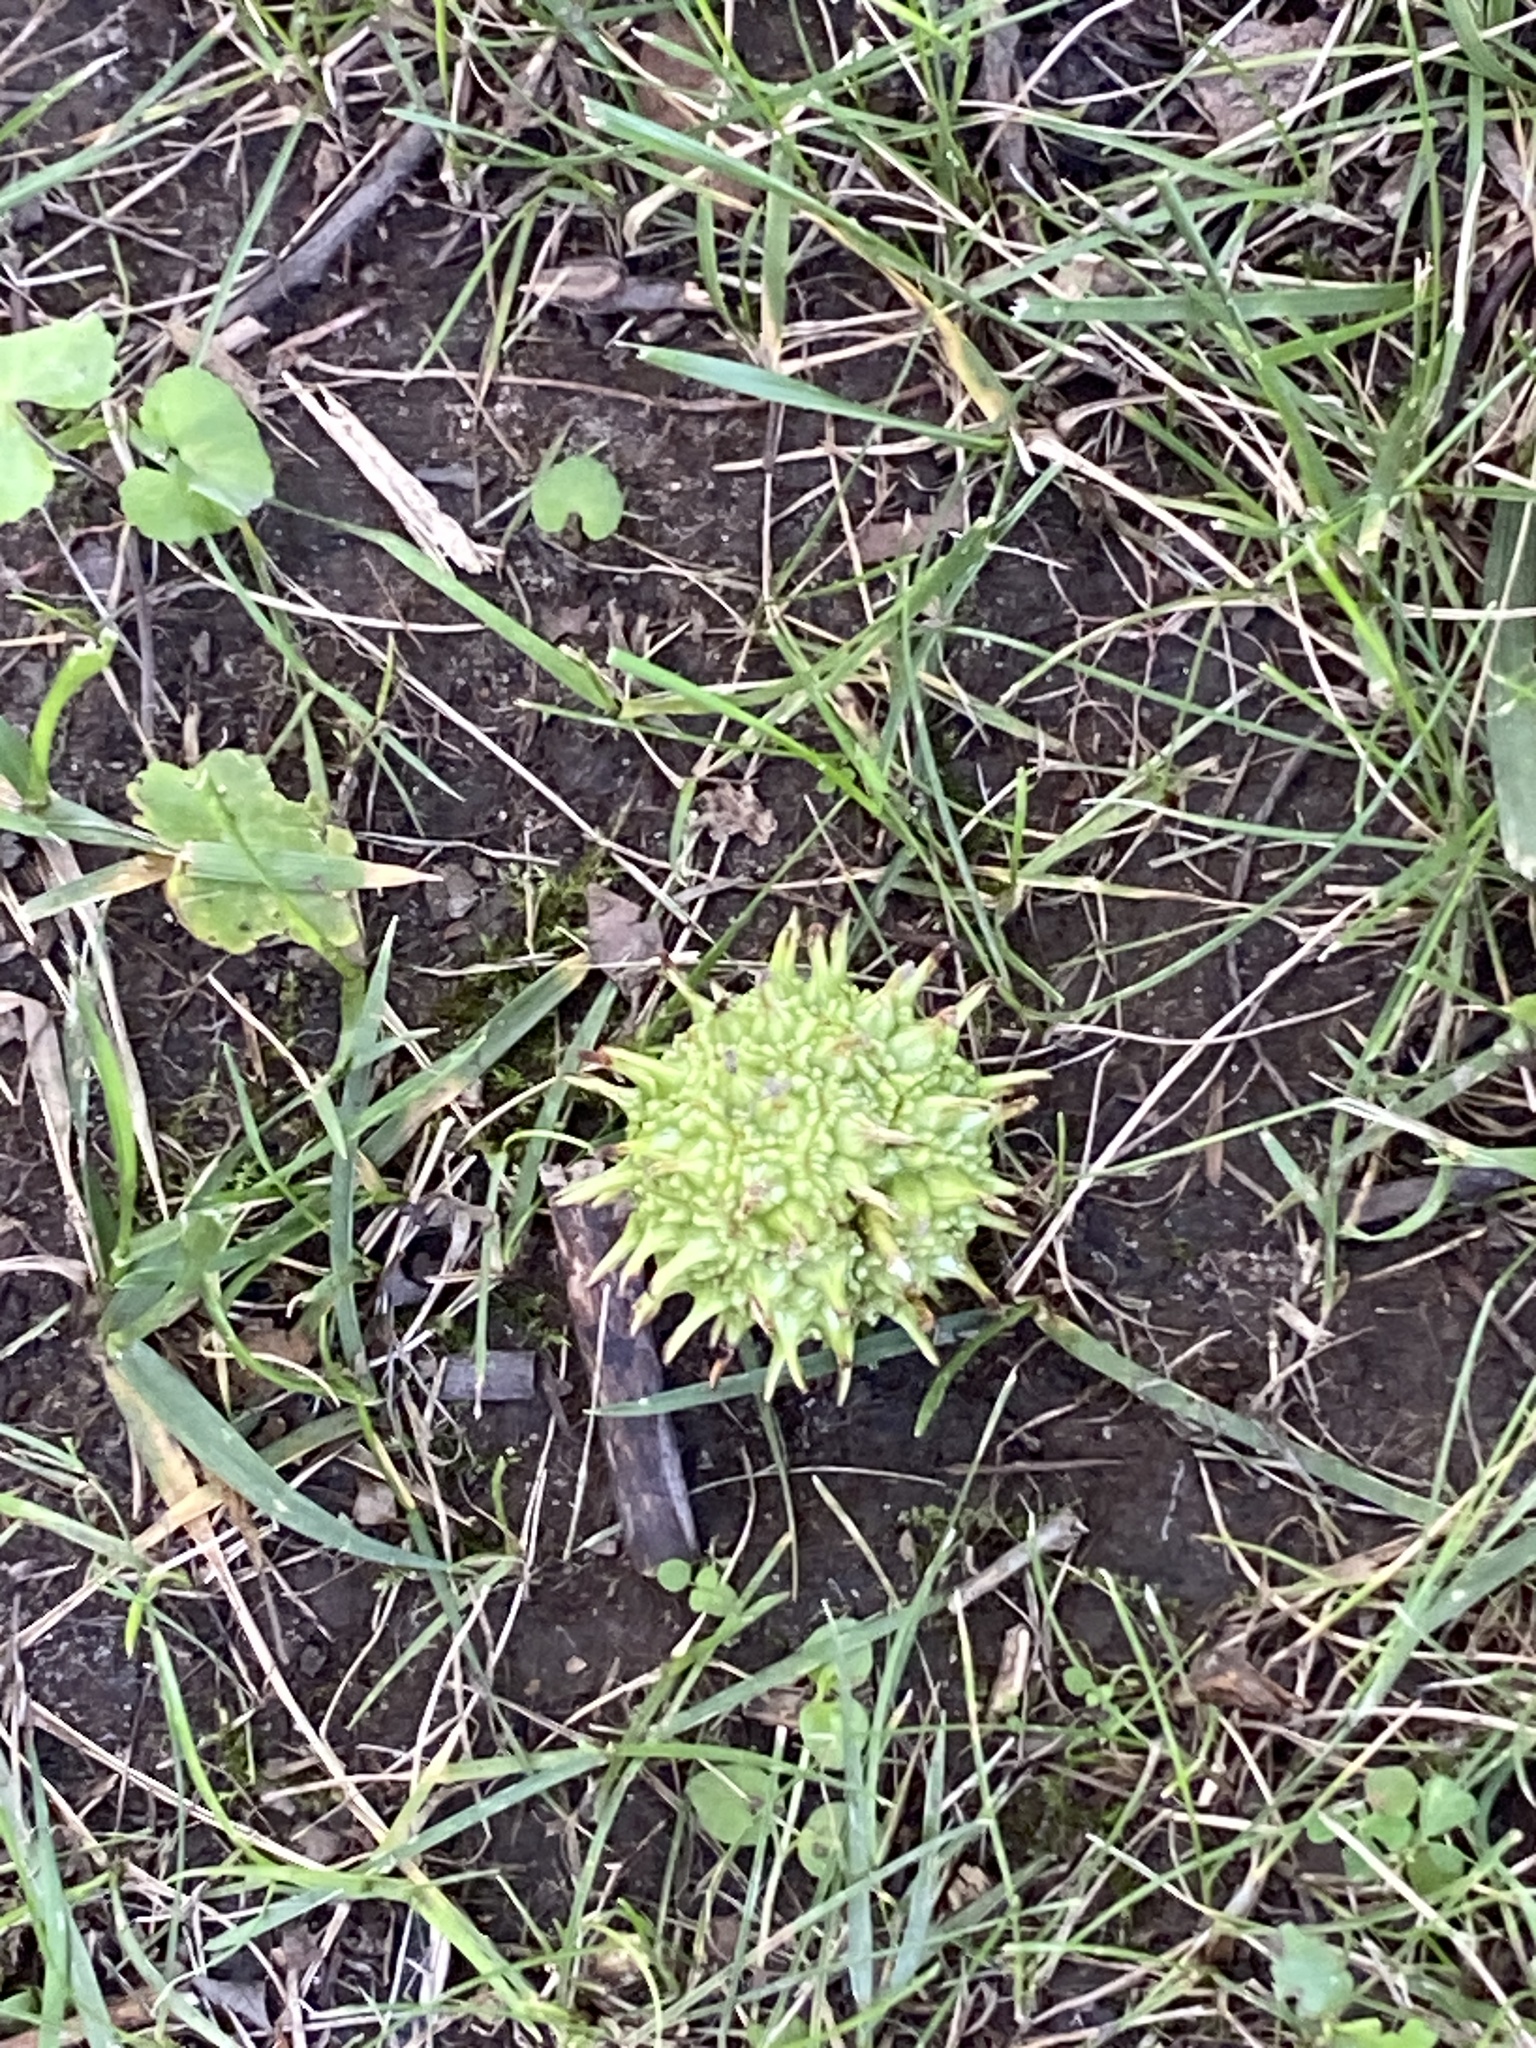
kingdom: Plantae
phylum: Tracheophyta
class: Magnoliopsida
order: Saxifragales
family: Altingiaceae
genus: Liquidambar
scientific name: Liquidambar styraciflua
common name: Sweet gum
